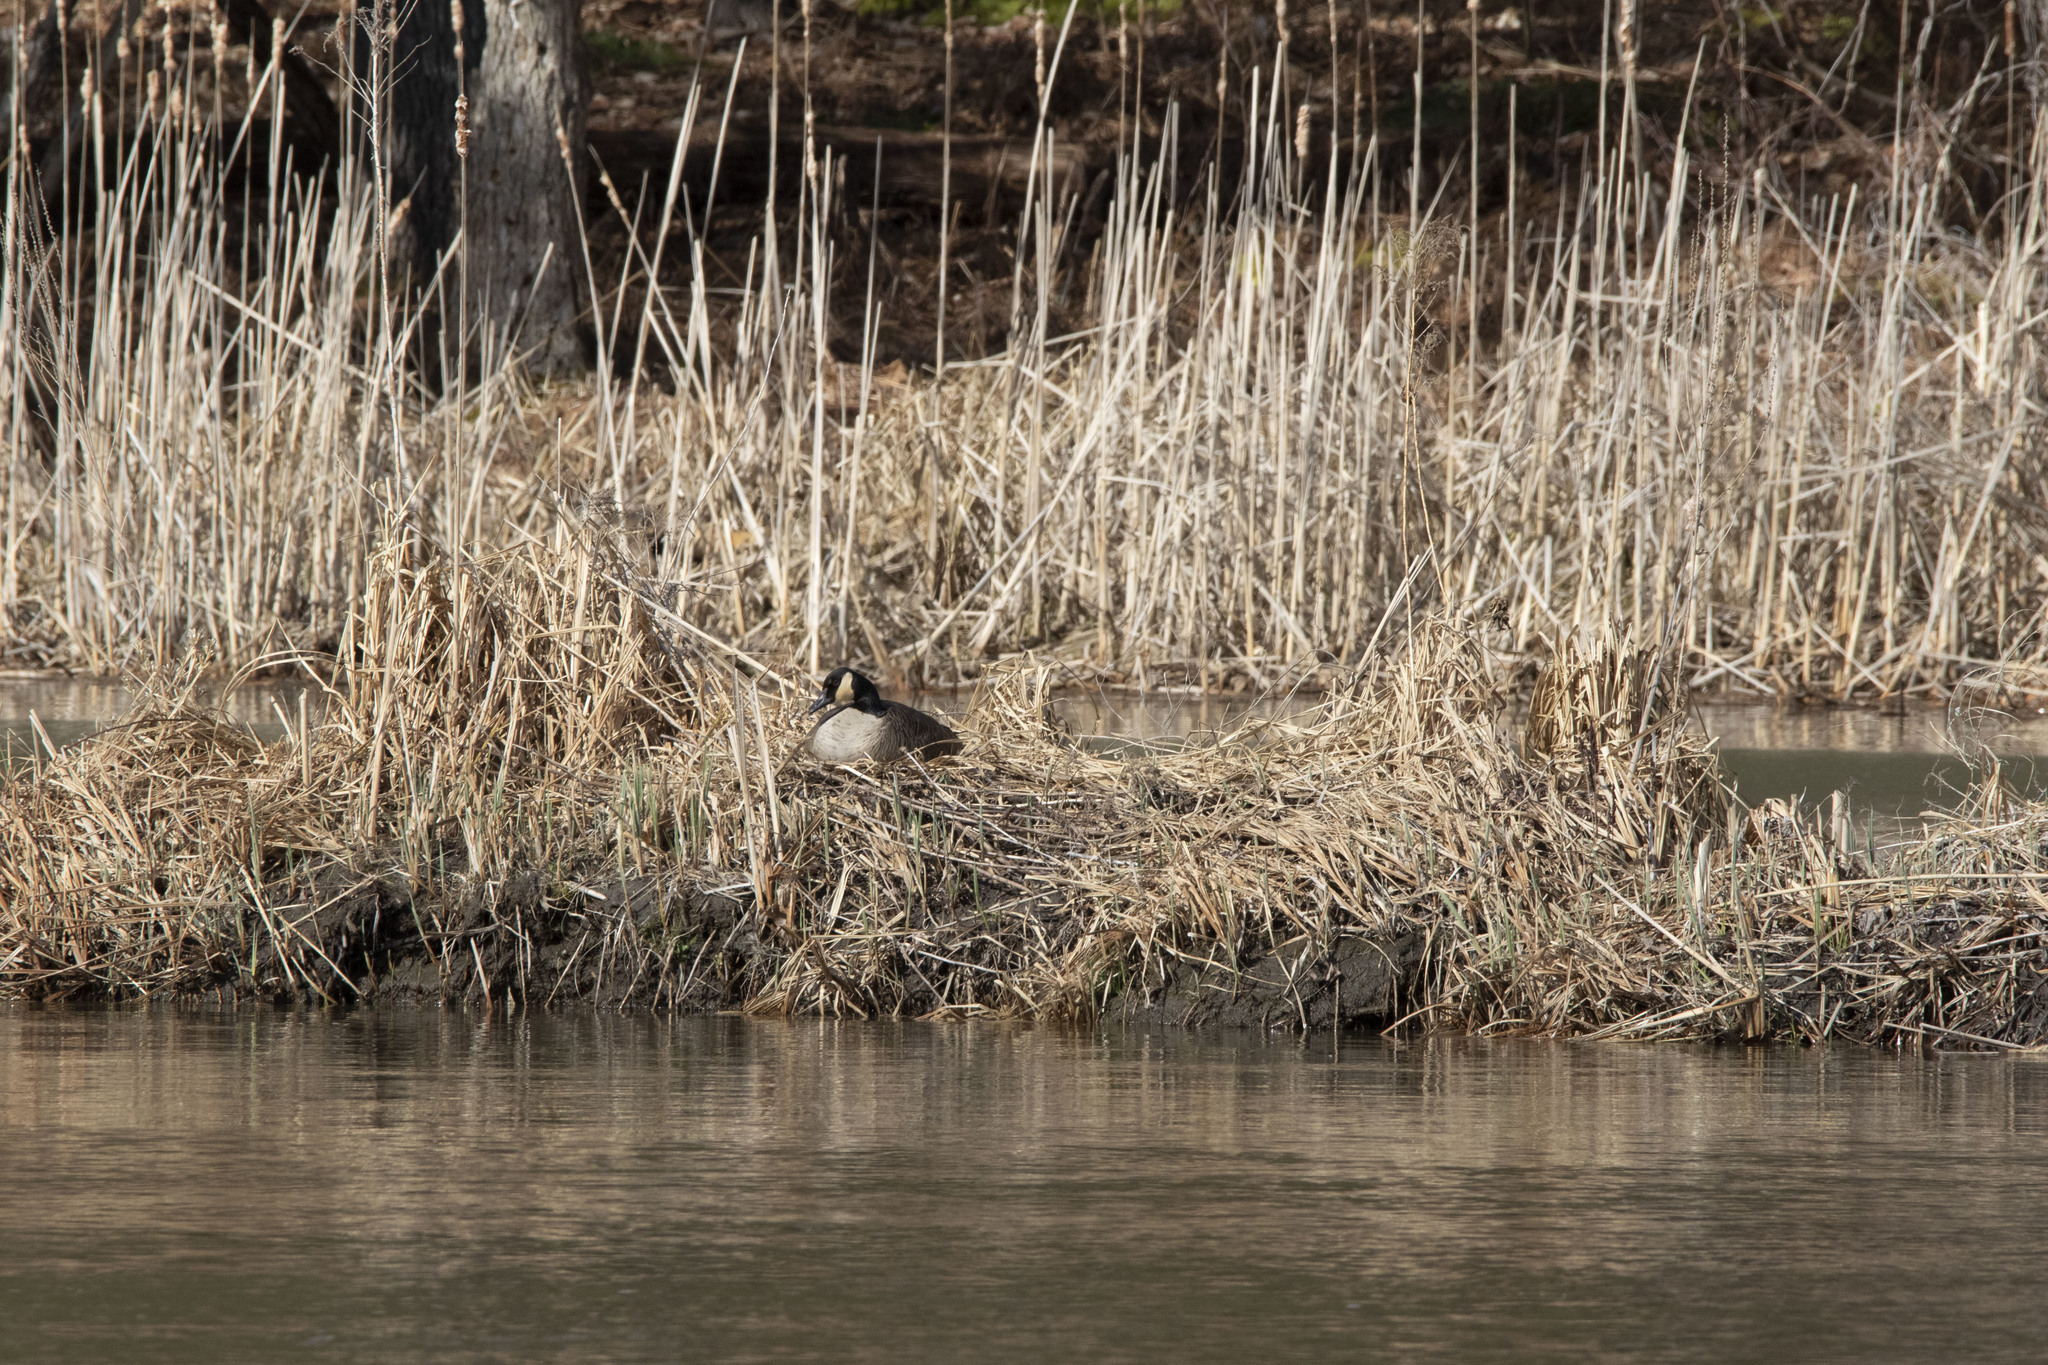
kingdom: Animalia
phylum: Chordata
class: Aves
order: Anseriformes
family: Anatidae
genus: Branta
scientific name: Branta canadensis
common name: Canada goose
